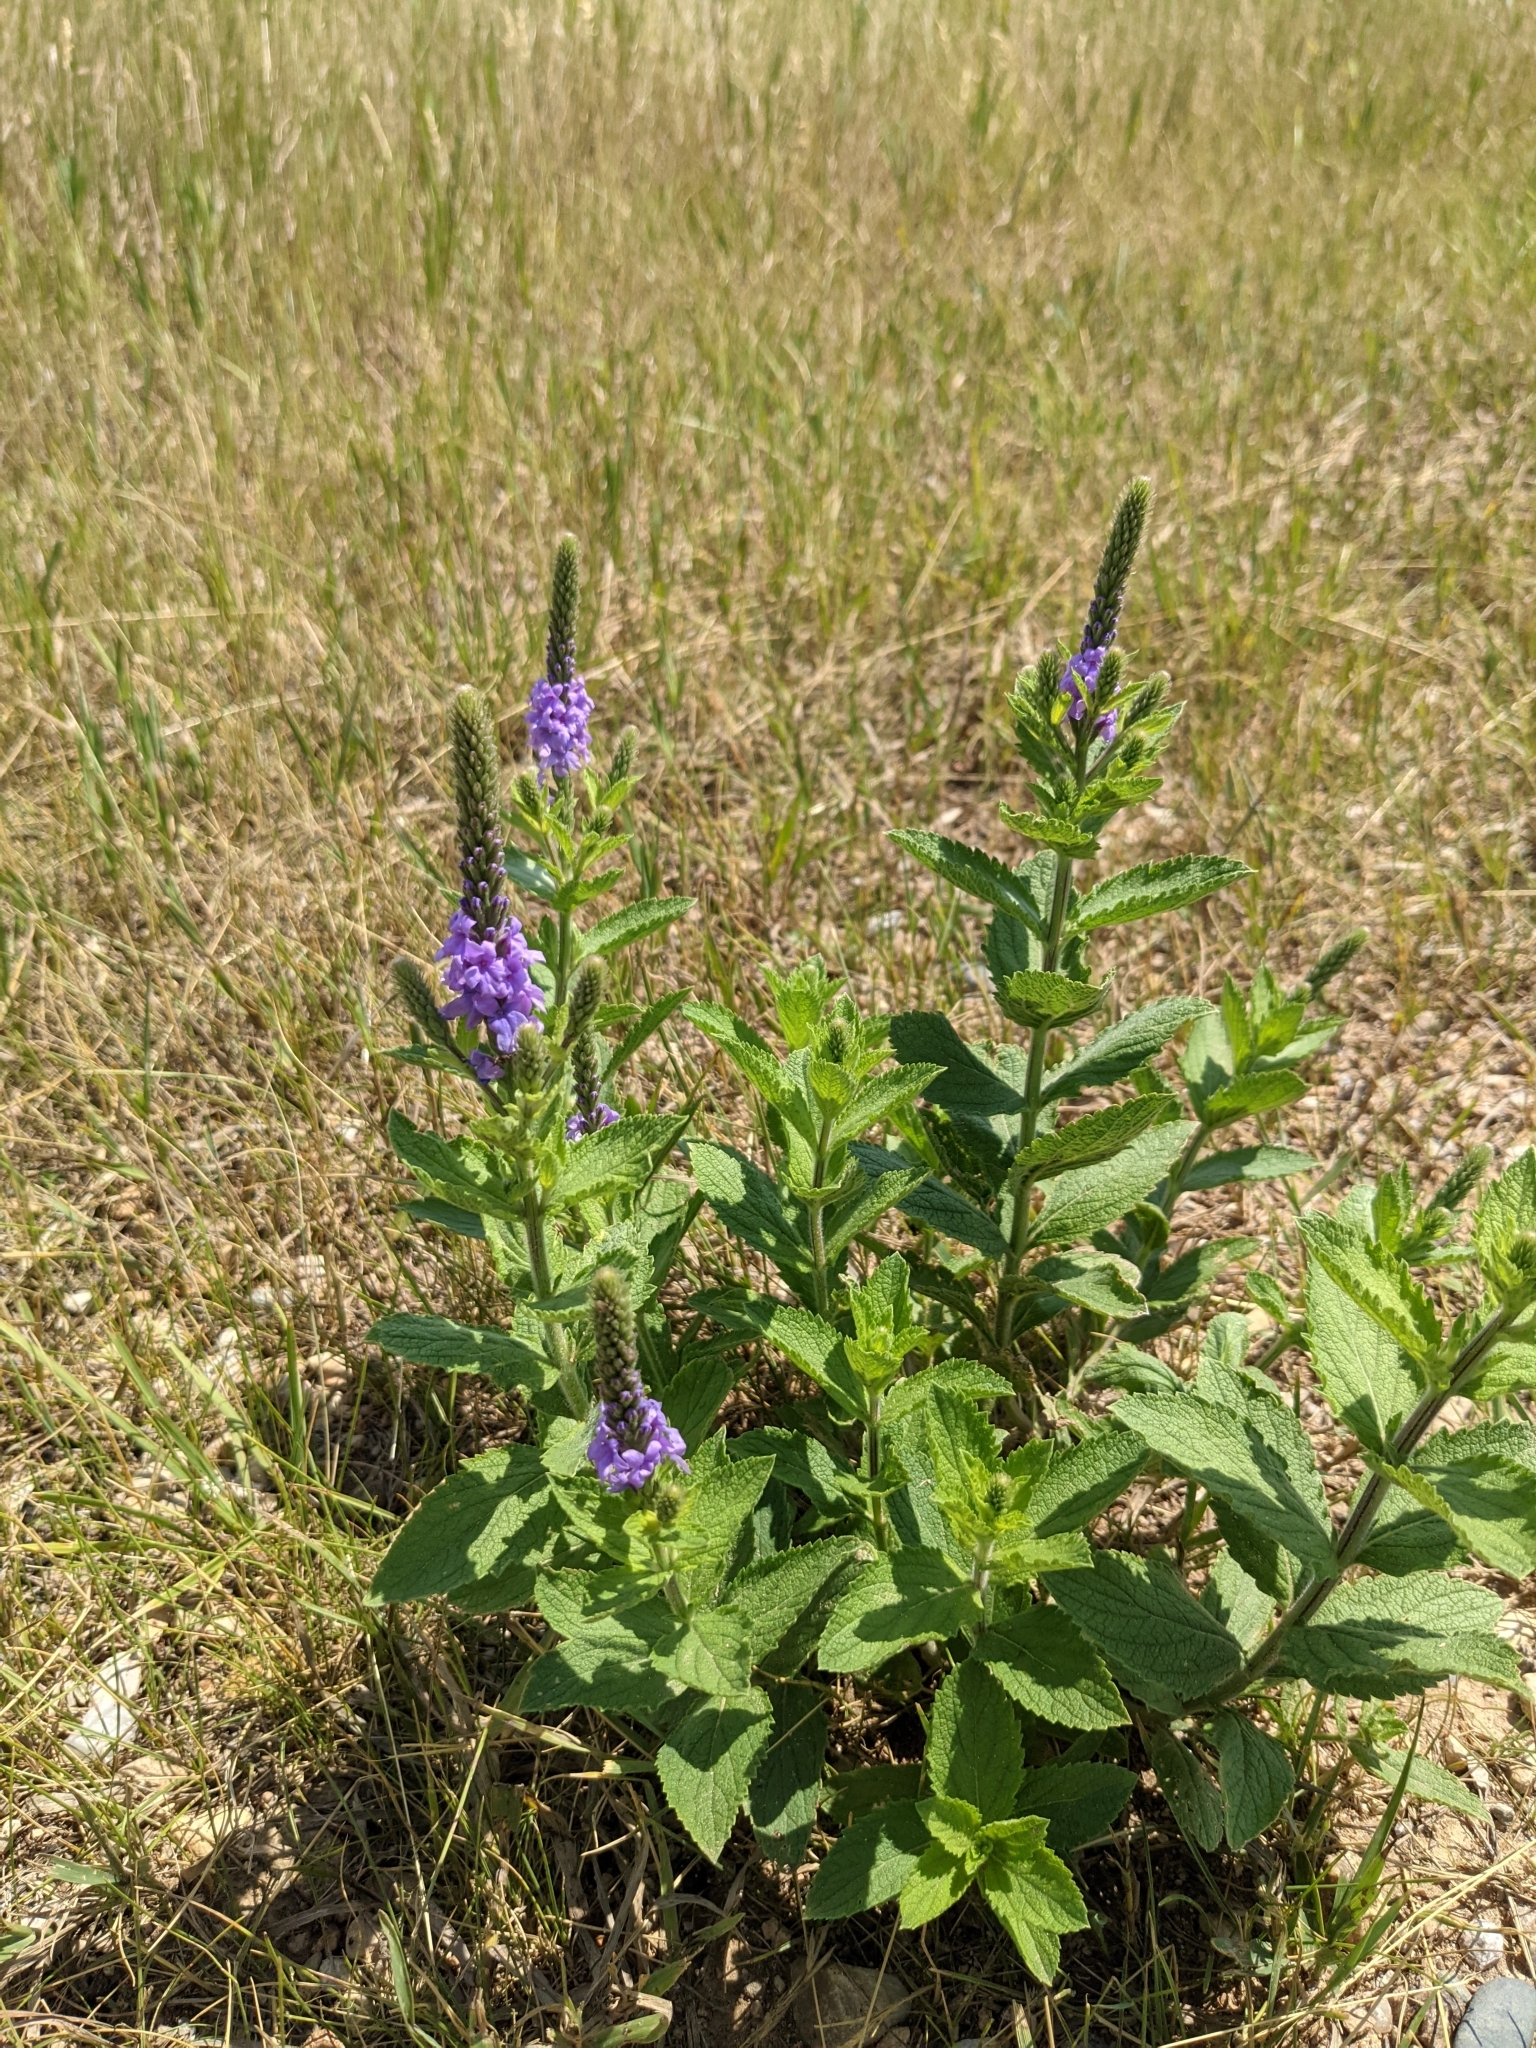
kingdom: Plantae
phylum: Tracheophyta
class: Magnoliopsida
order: Lamiales
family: Verbenaceae
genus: Verbena
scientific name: Verbena stricta
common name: Hoary vervain
